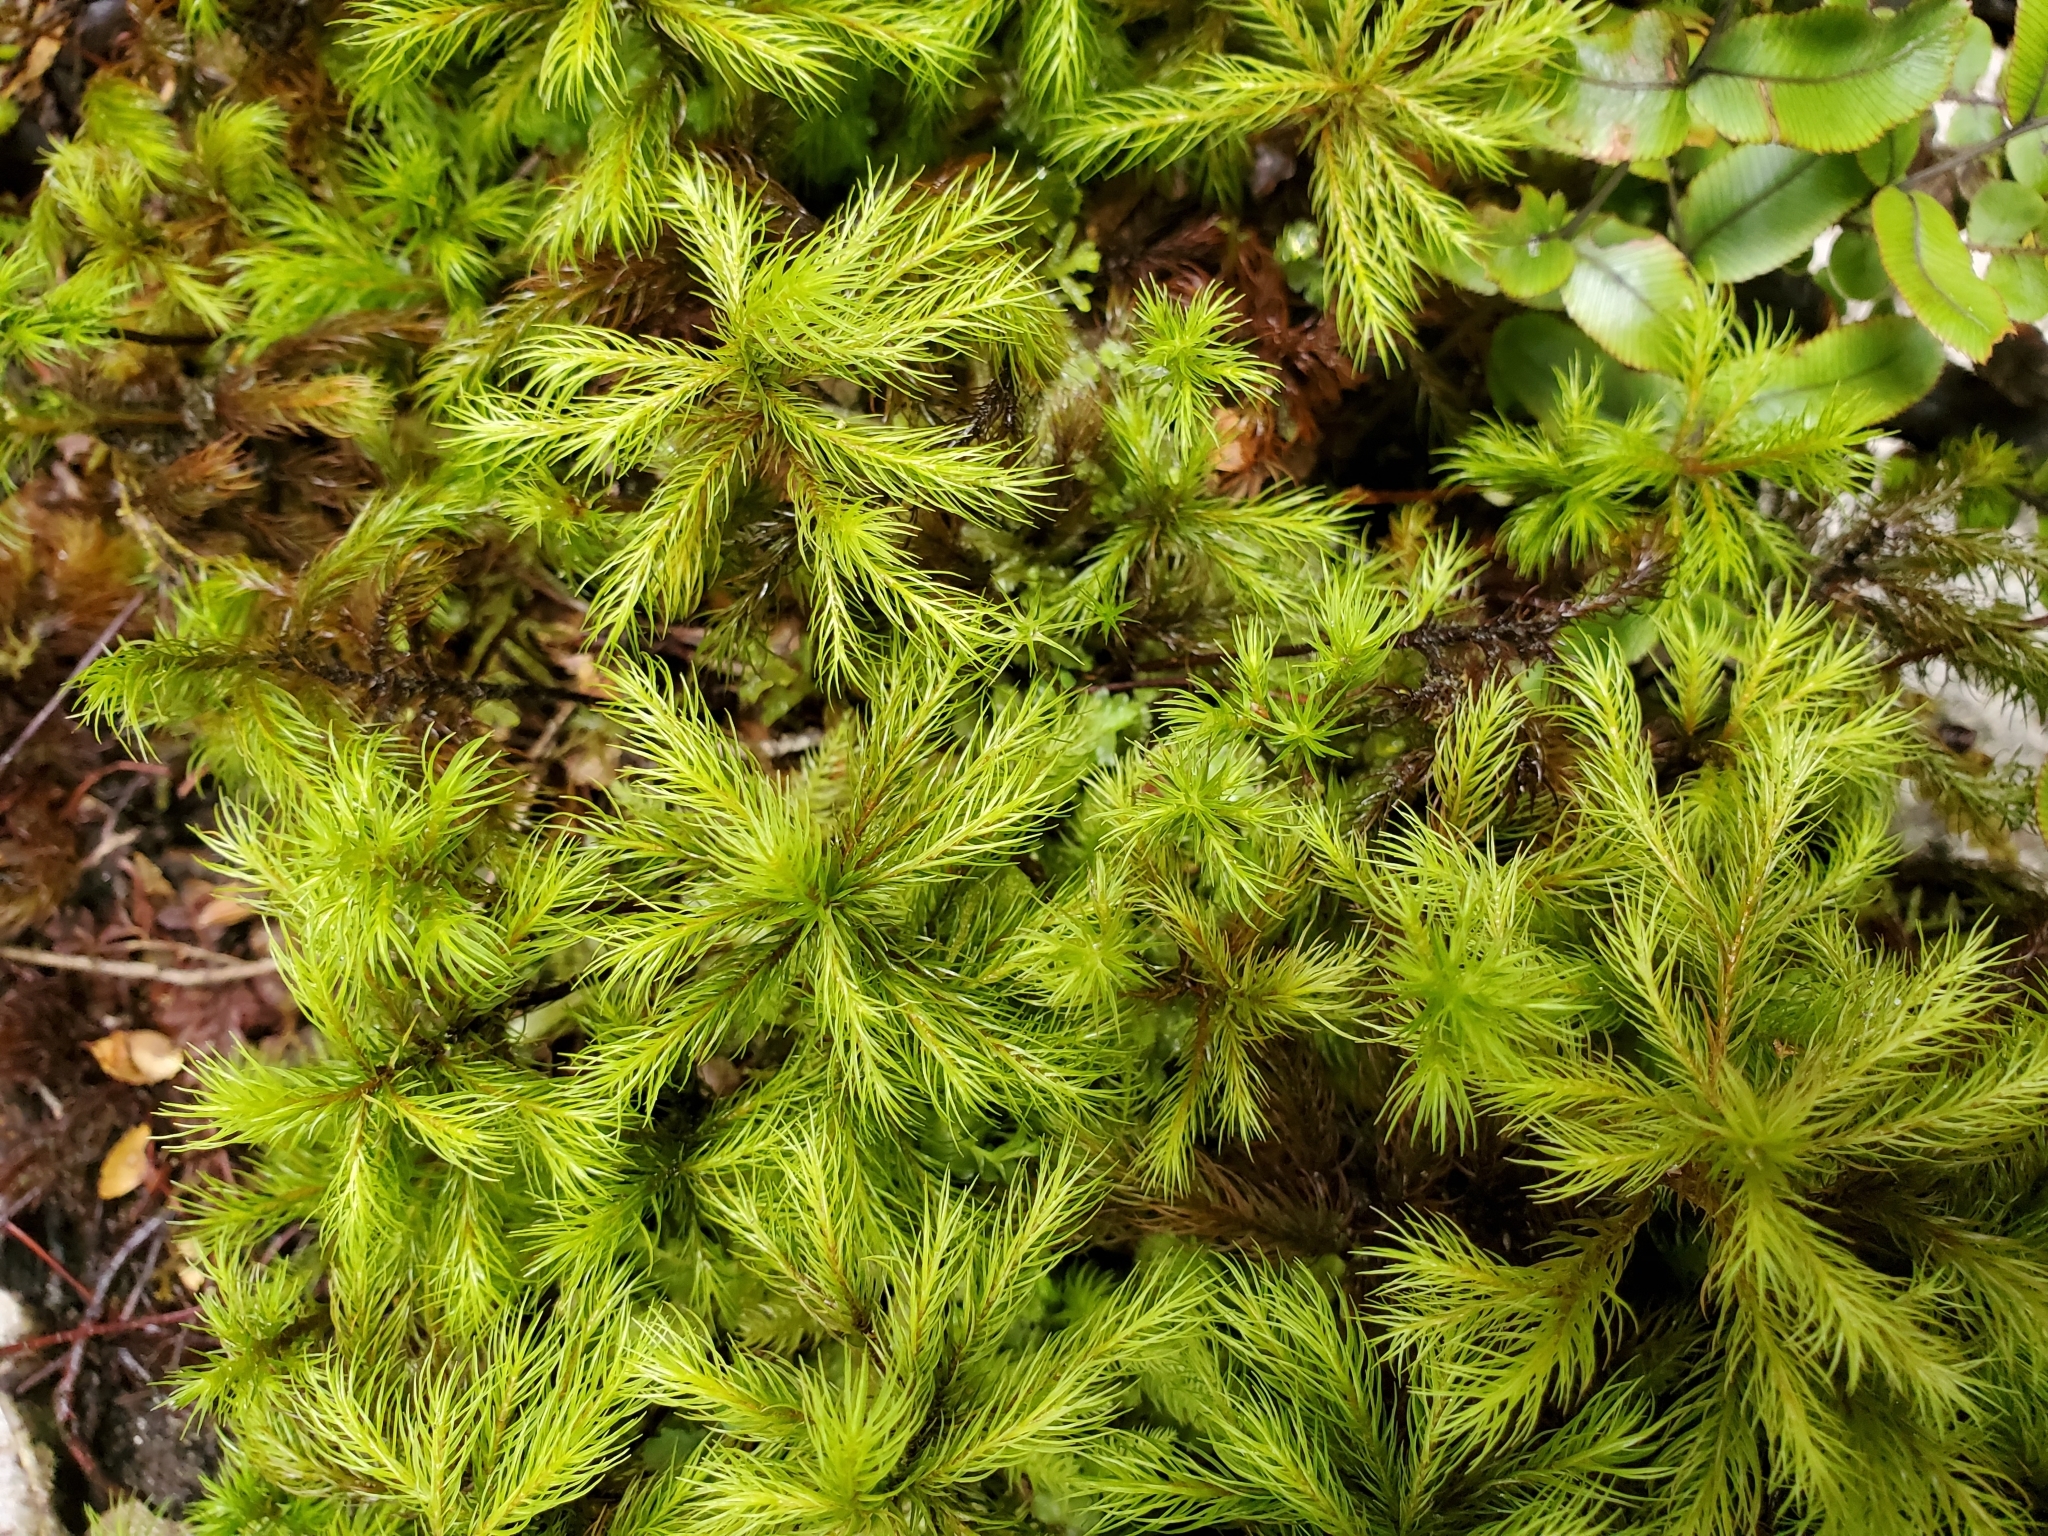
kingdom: Plantae
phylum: Bryophyta
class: Polytrichopsida
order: Polytrichales
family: Polytrichaceae
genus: Dendroligotrichum
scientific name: Dendroligotrichum tongariroense
